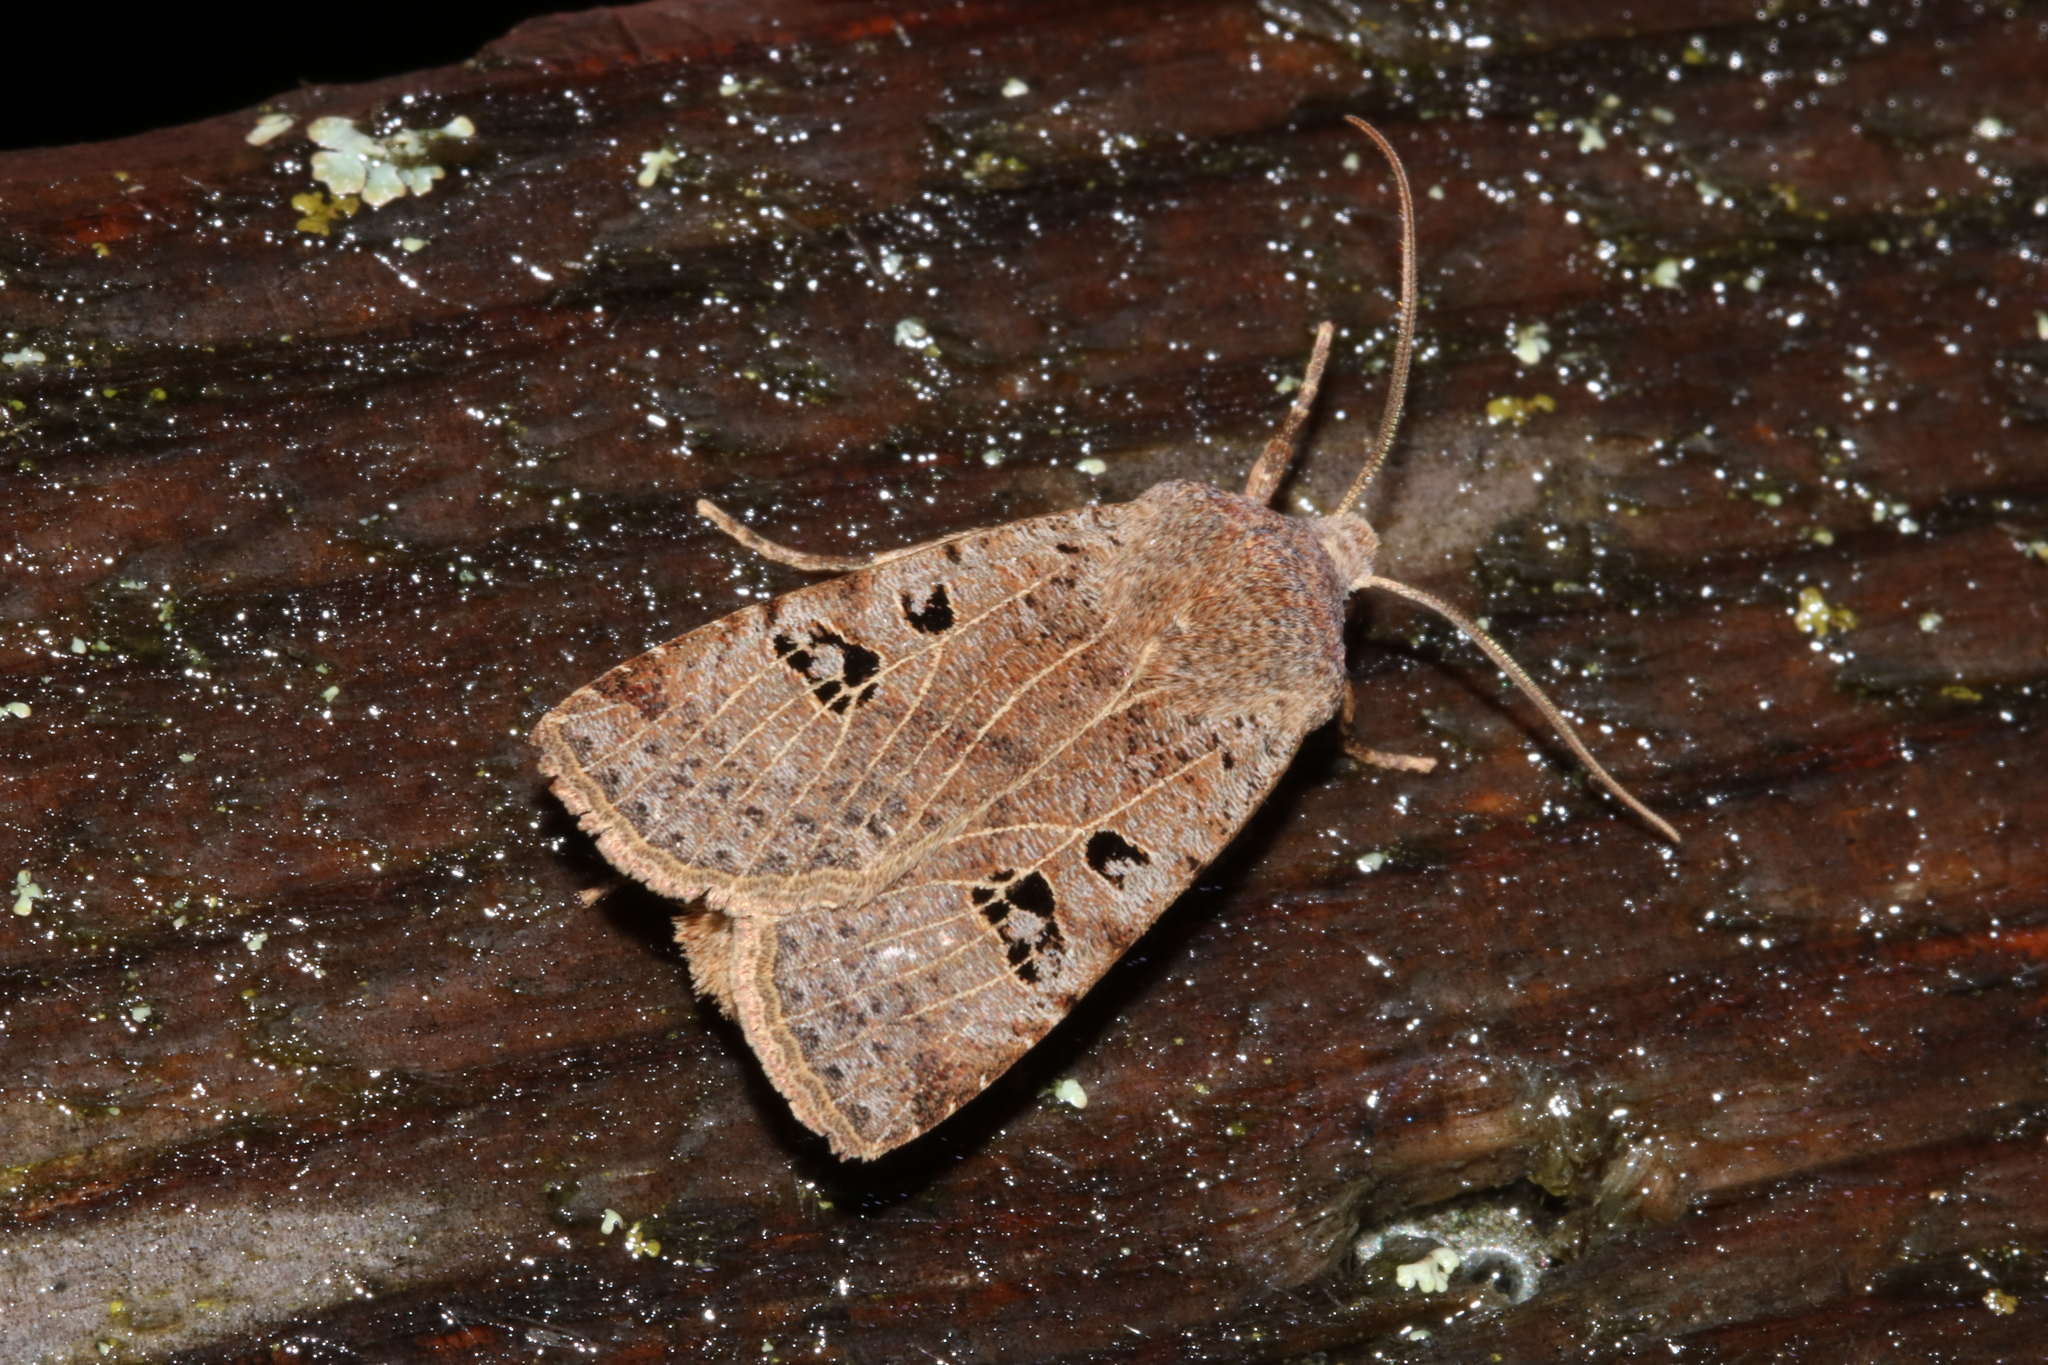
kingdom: Animalia
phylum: Arthropoda
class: Insecta
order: Lepidoptera
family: Noctuidae
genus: Conistra
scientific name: Conistra rubiginosa
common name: Black-spotted chestnut
